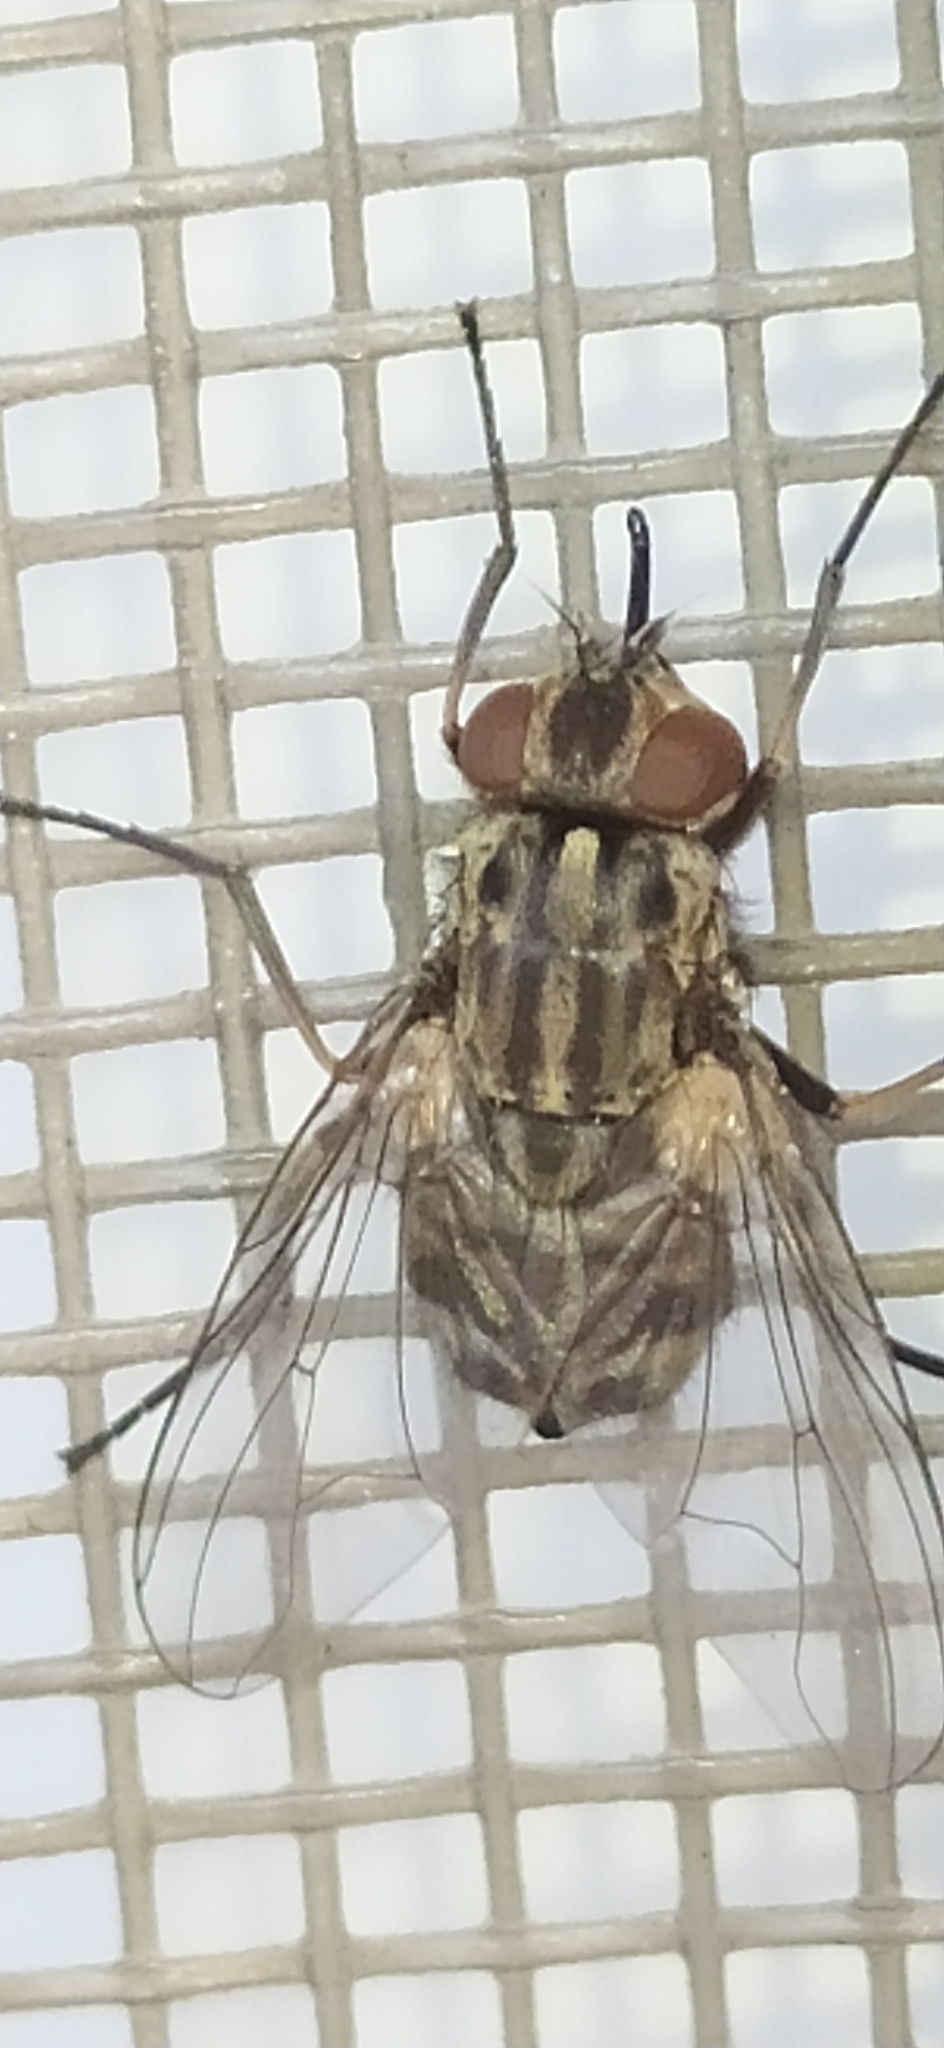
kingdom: Animalia
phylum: Arthropoda
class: Insecta
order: Diptera
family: Muscidae
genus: Stomoxys
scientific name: Stomoxys calcitrans
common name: Stable fly
